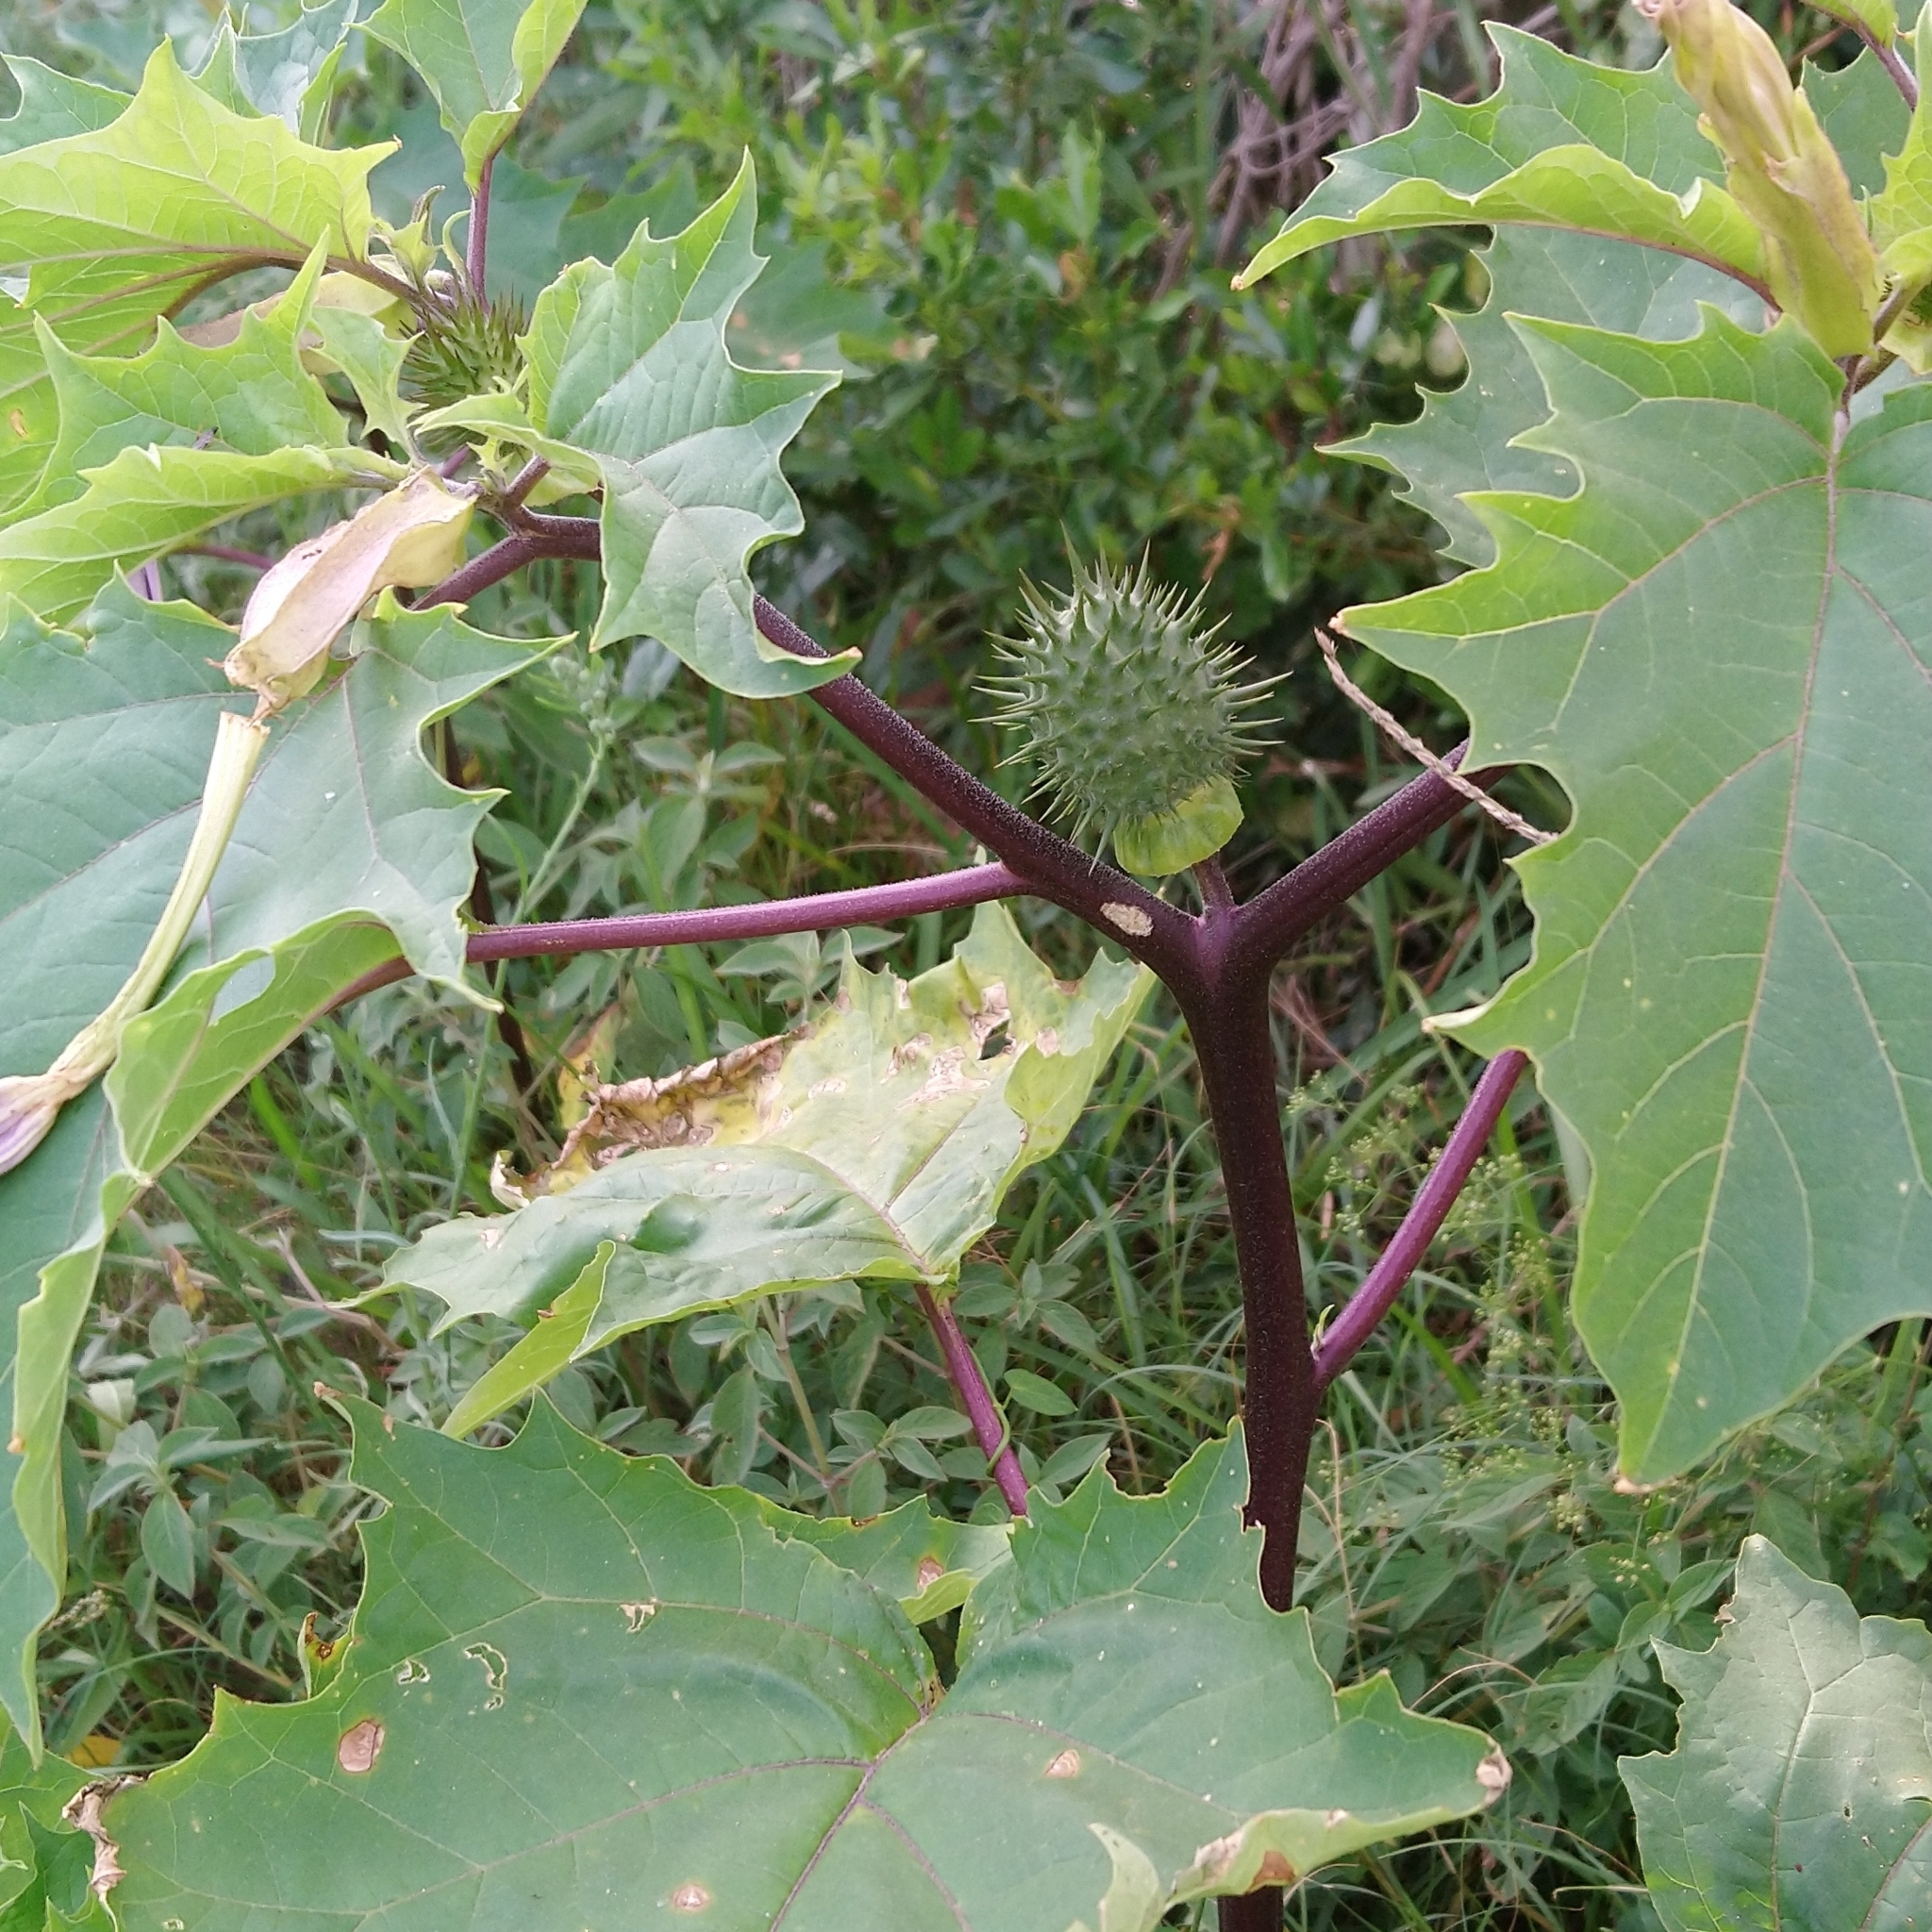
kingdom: Plantae
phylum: Tracheophyta
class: Magnoliopsida
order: Solanales
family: Solanaceae
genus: Datura
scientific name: Datura stramonium
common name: Thorn-apple
